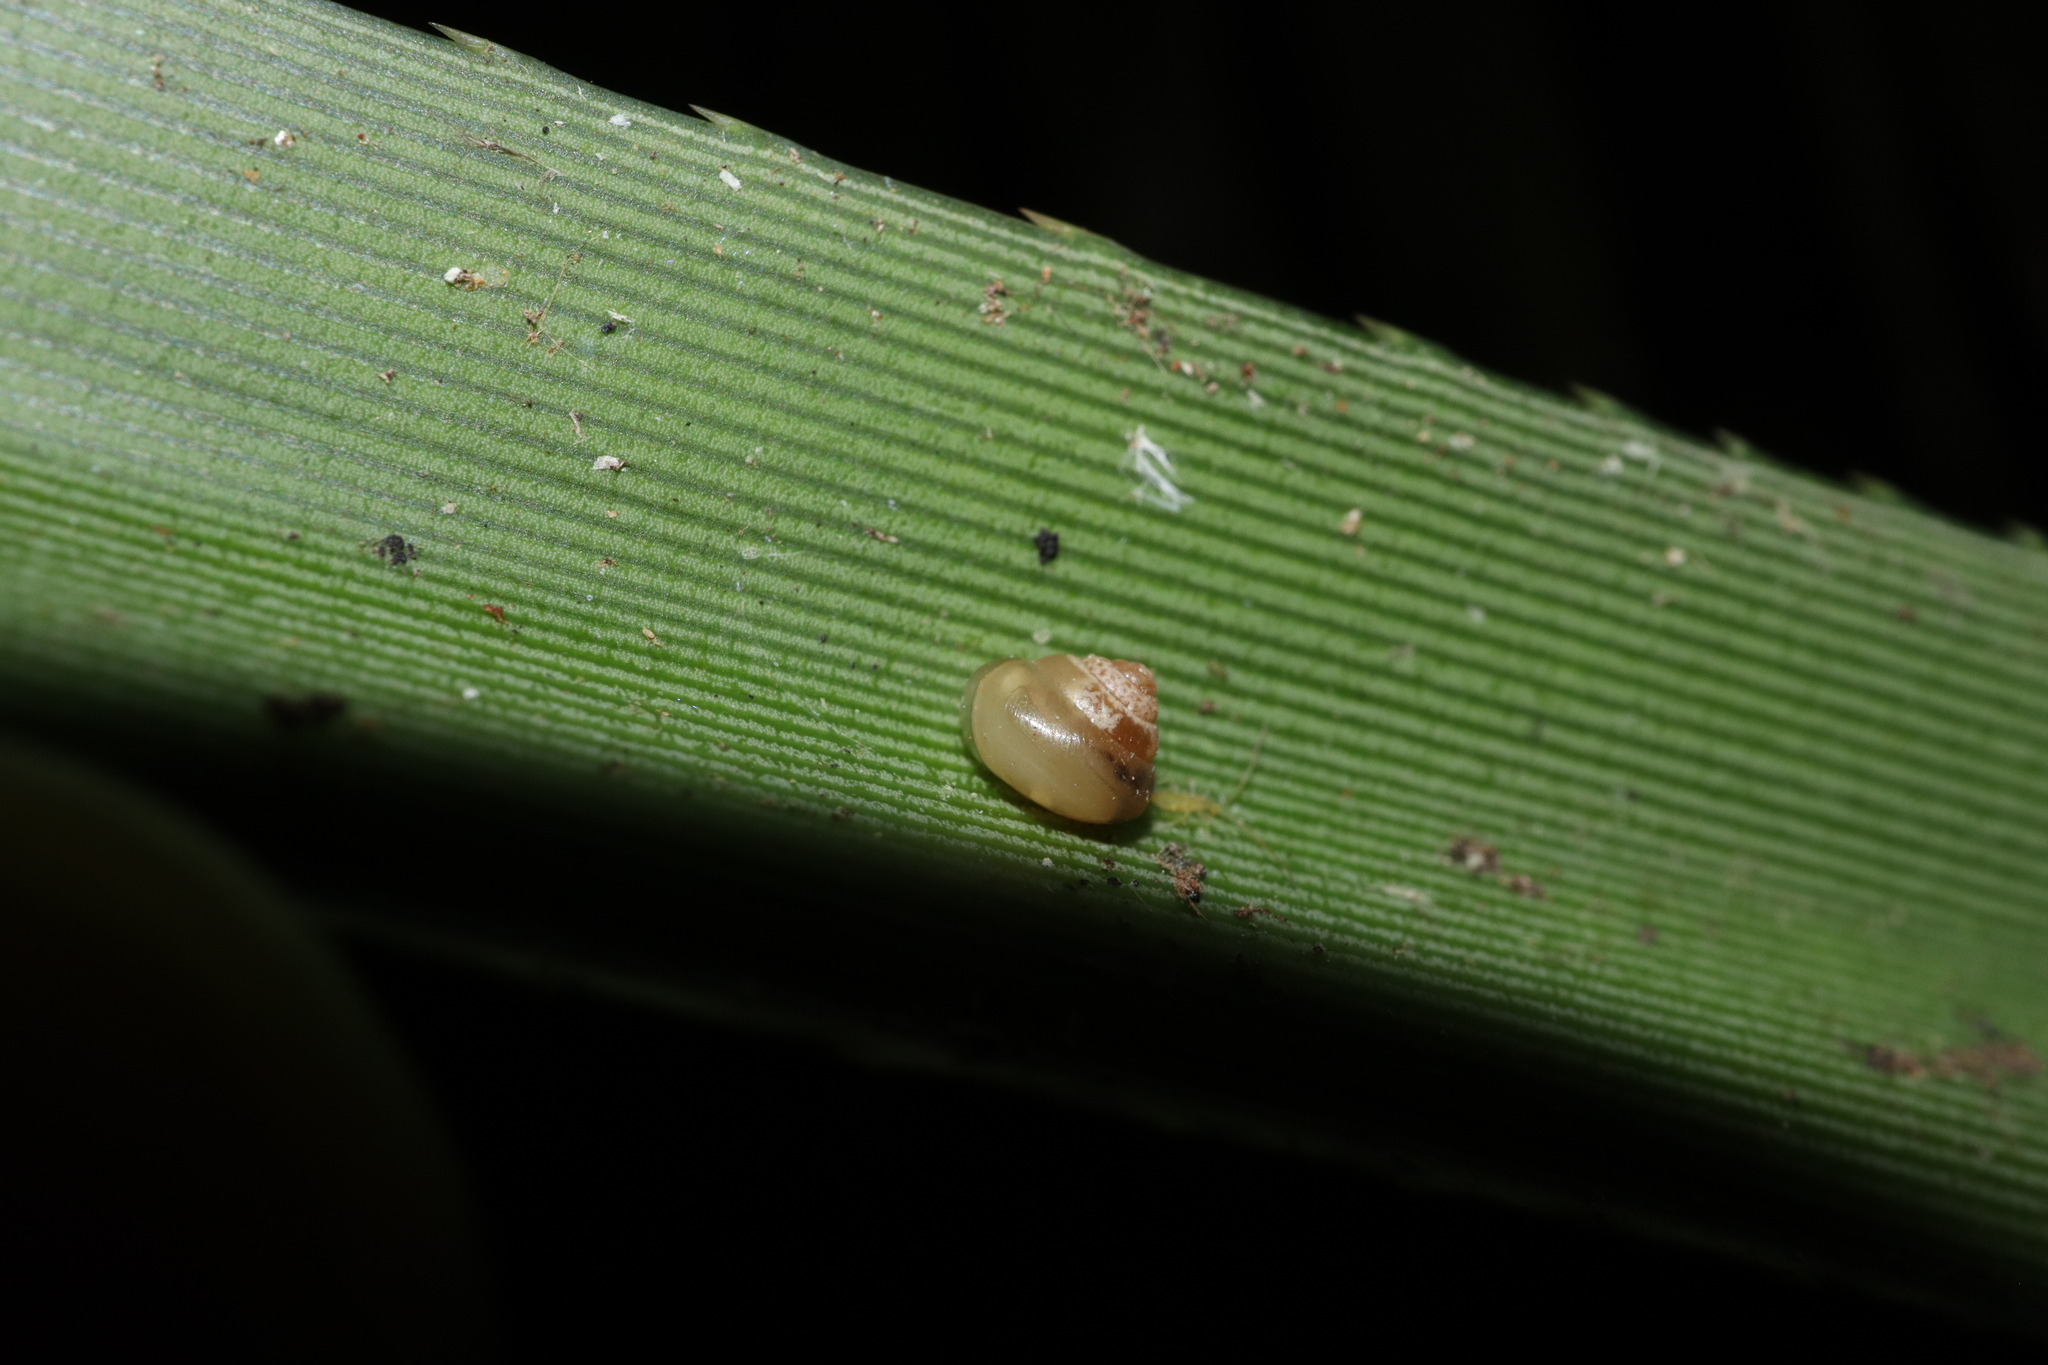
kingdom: Animalia
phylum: Mollusca
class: Gastropoda
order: Stylommatophora
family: Euconulidae
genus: Coneuplecta
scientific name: Coneuplecta calculosa
